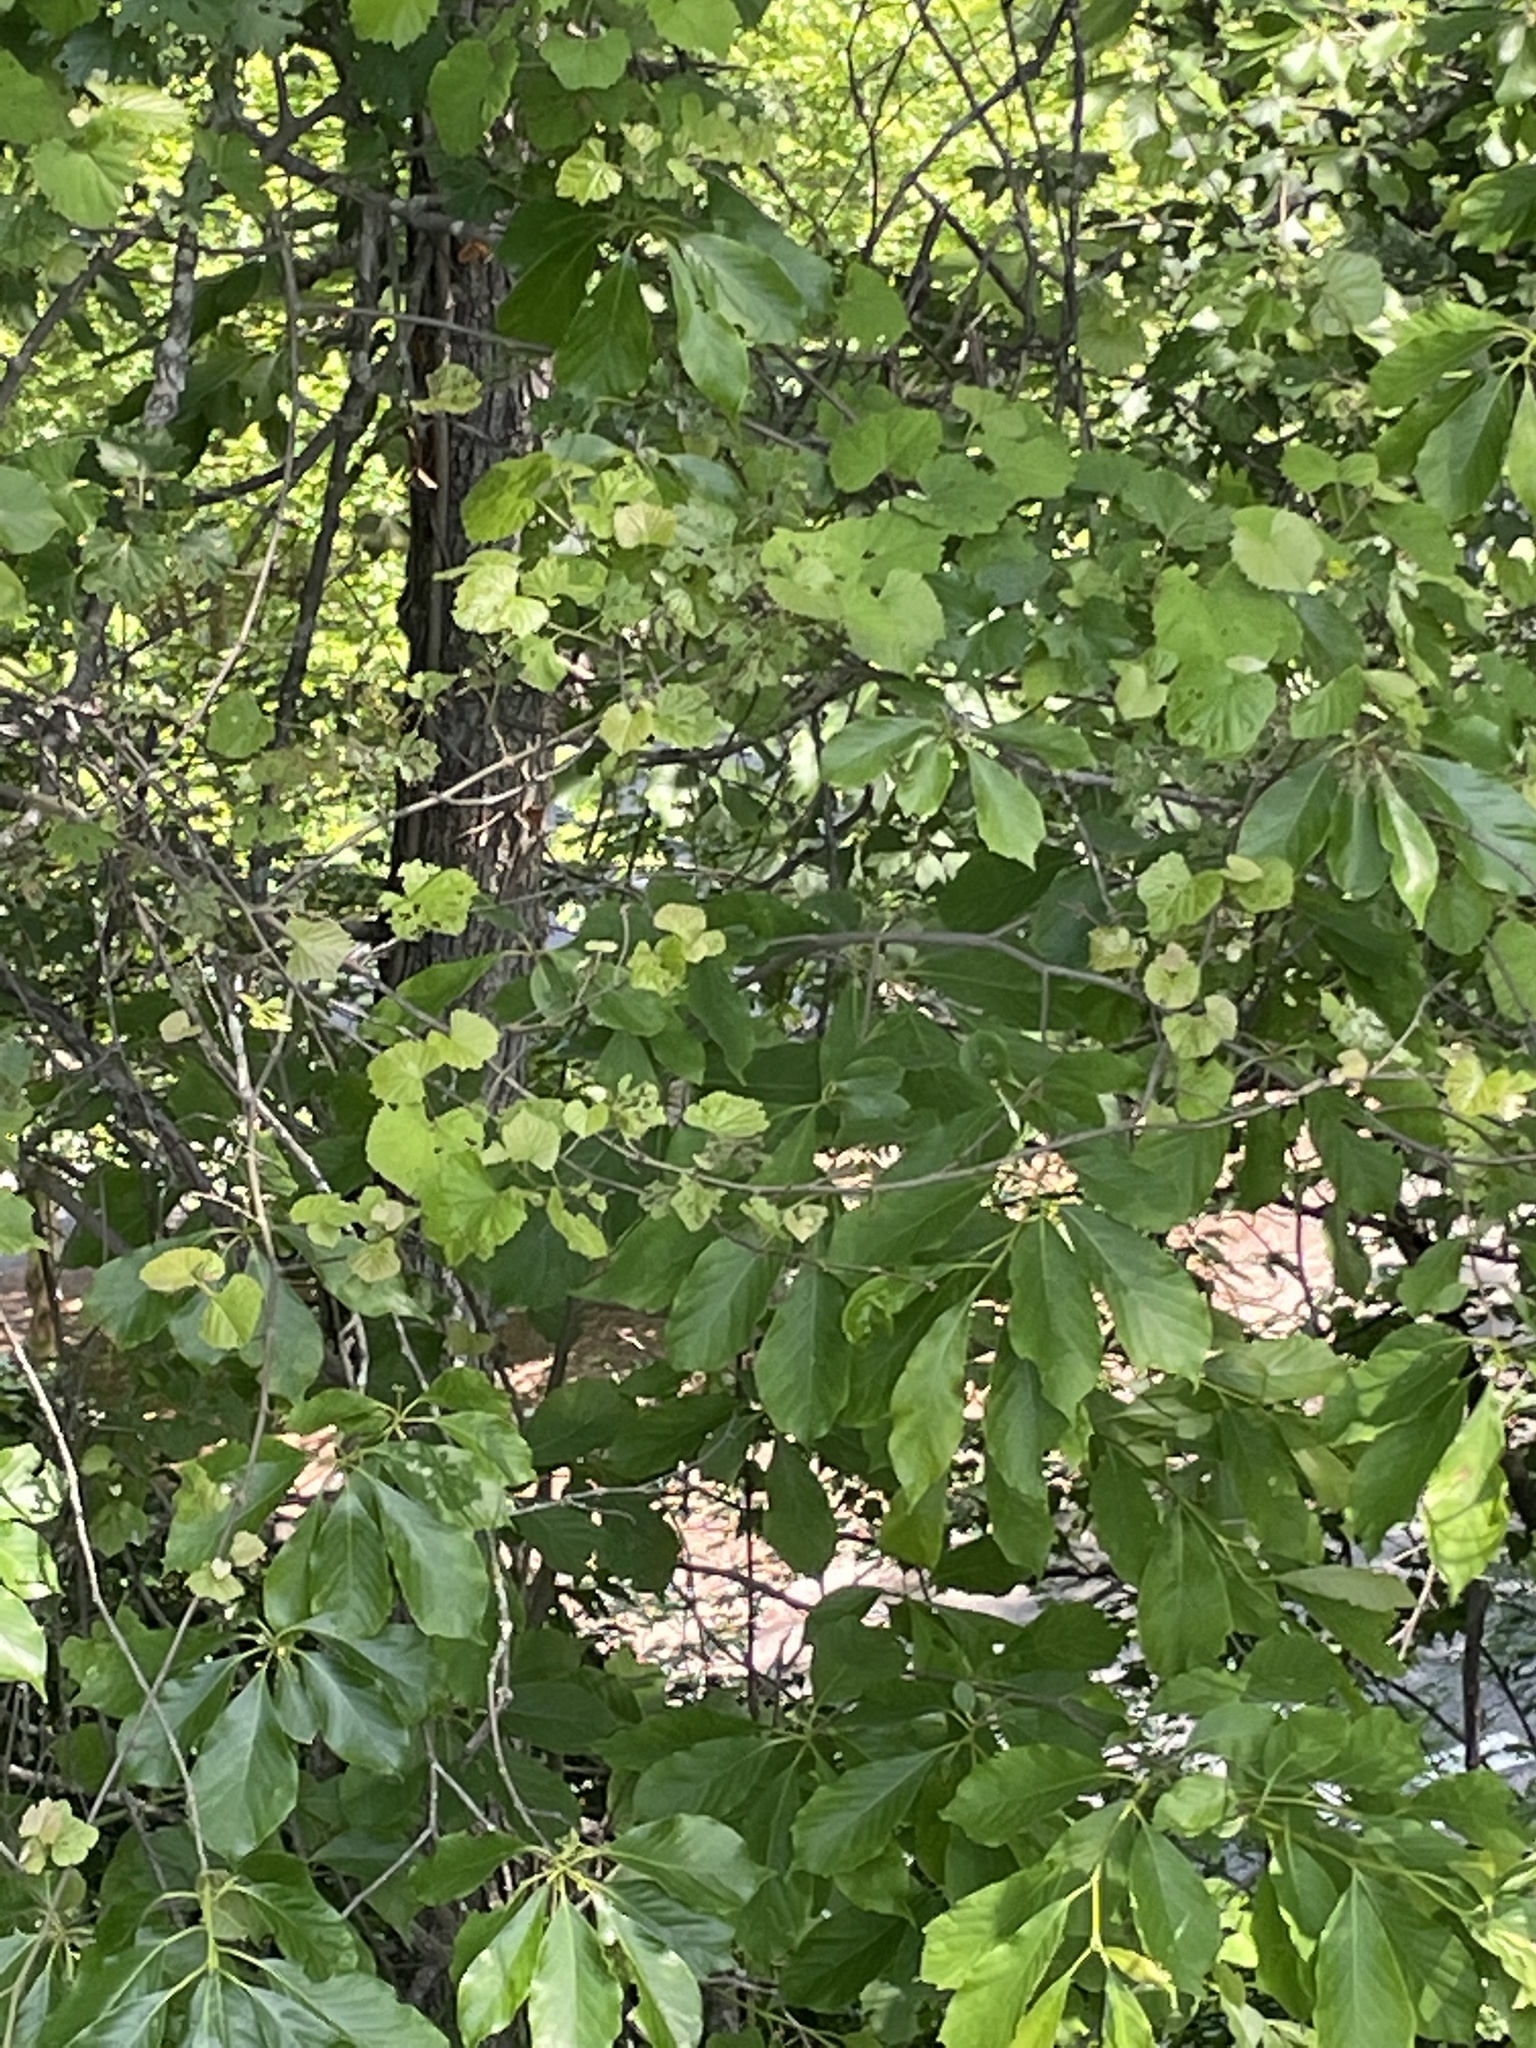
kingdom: Plantae
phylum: Tracheophyta
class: Magnoliopsida
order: Vitales
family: Vitaceae
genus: Vitis
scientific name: Vitis rotundifolia
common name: Muscadine grape
